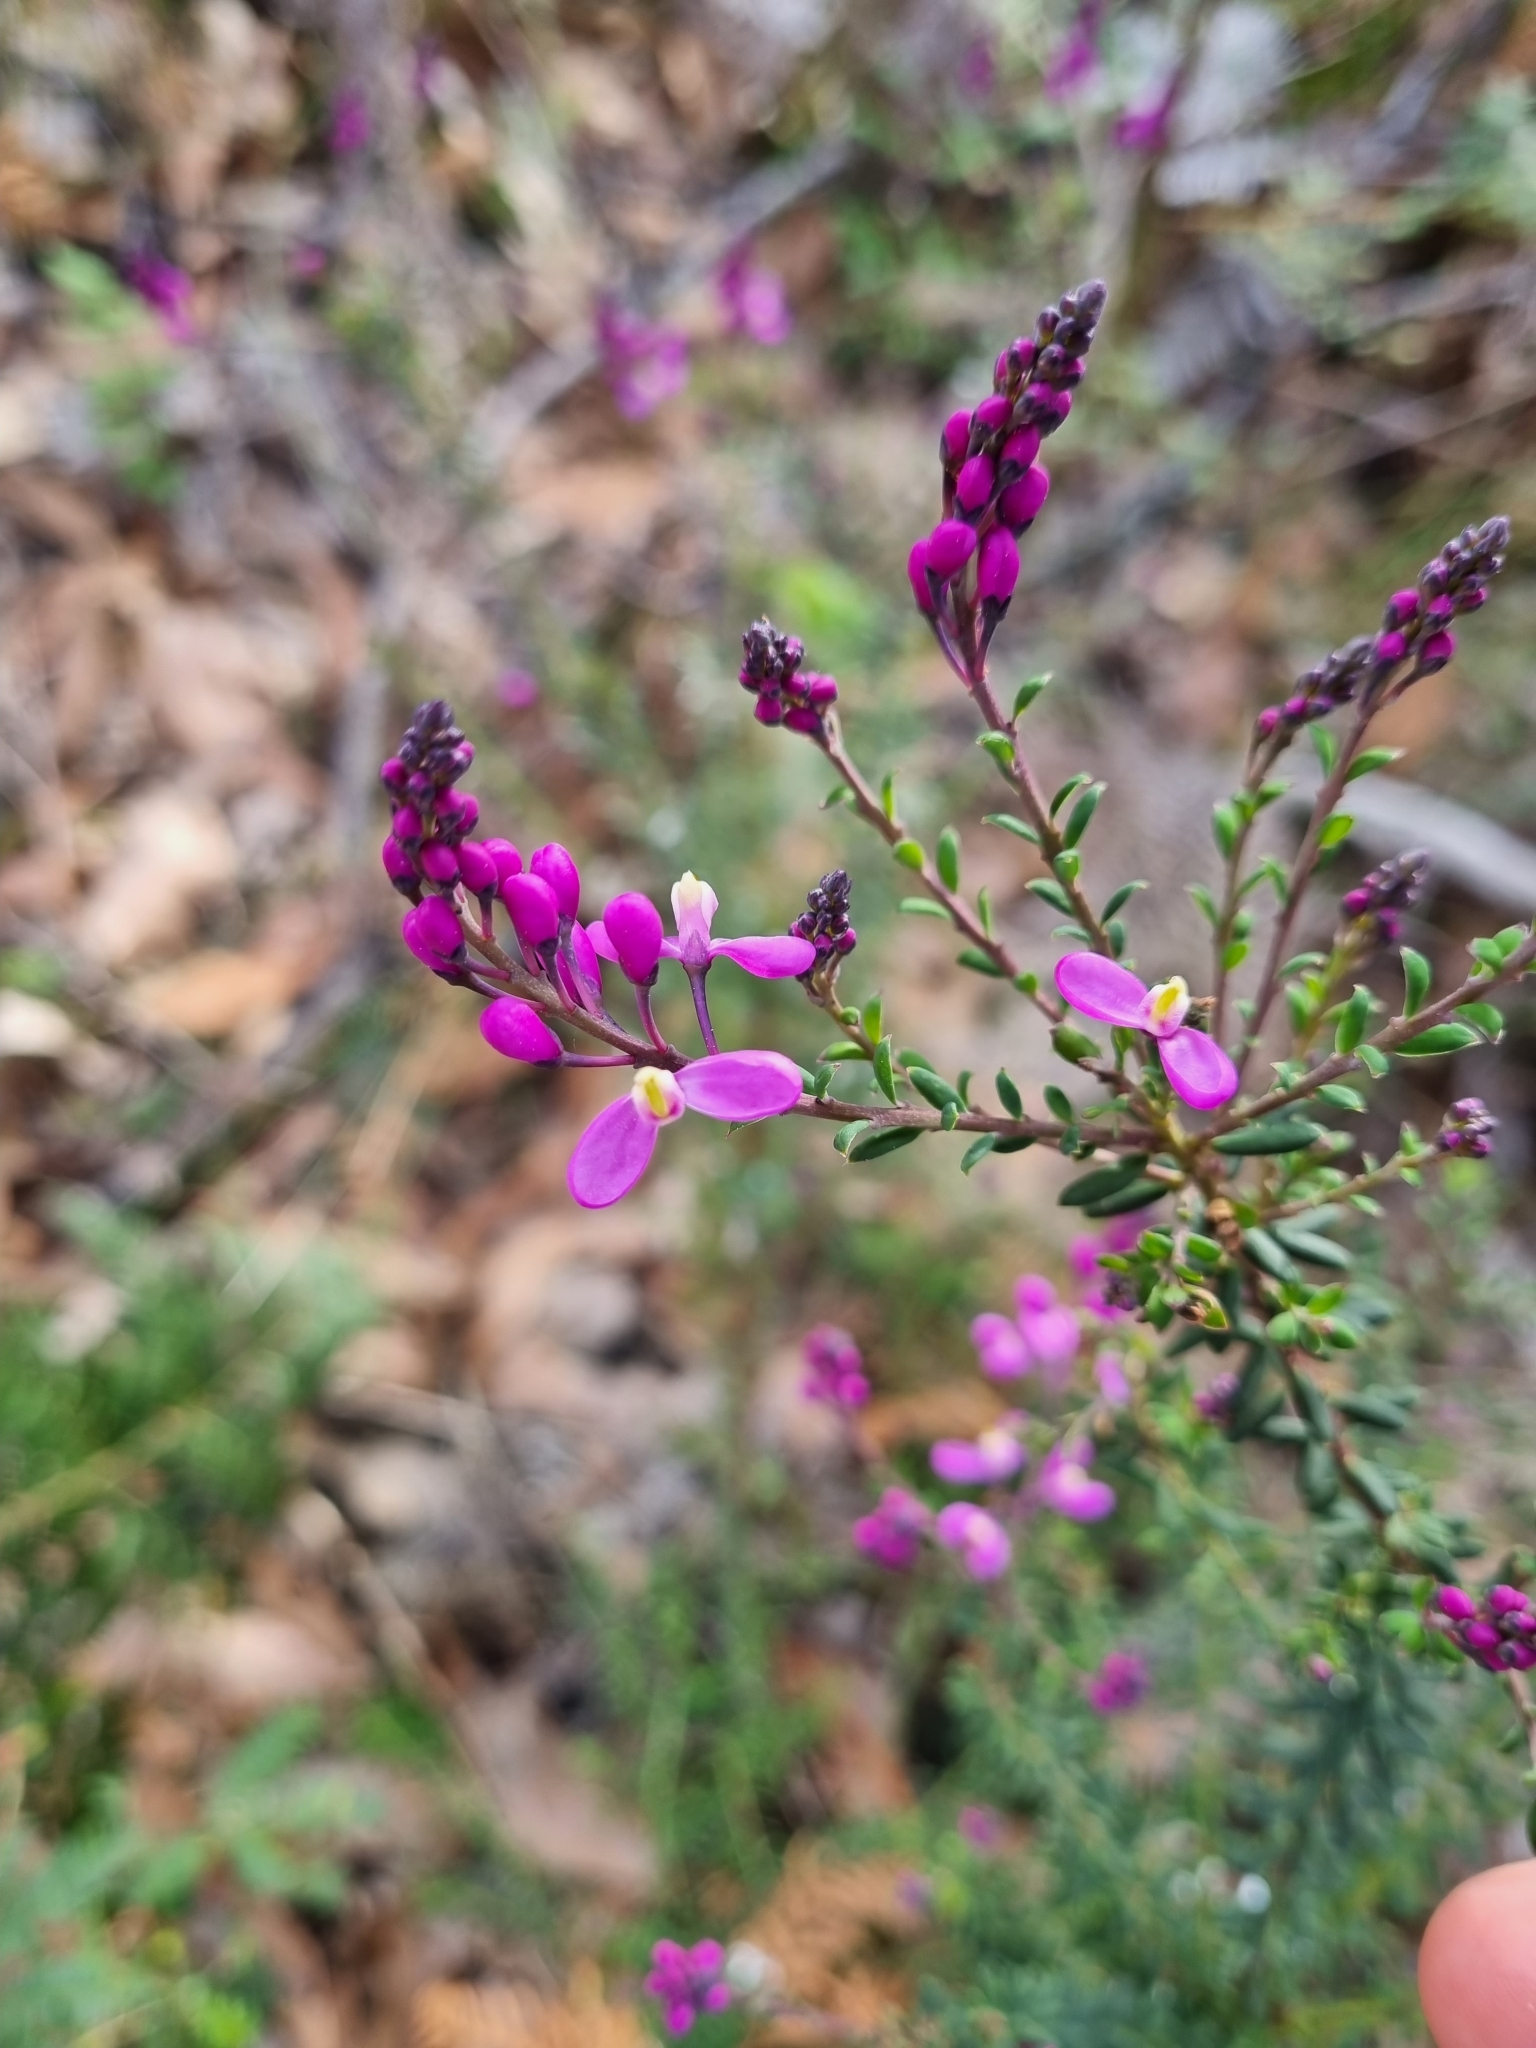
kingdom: Plantae
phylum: Tracheophyta
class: Magnoliopsida
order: Fabales
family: Polygalaceae
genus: Comesperma
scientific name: Comesperma ericinum
